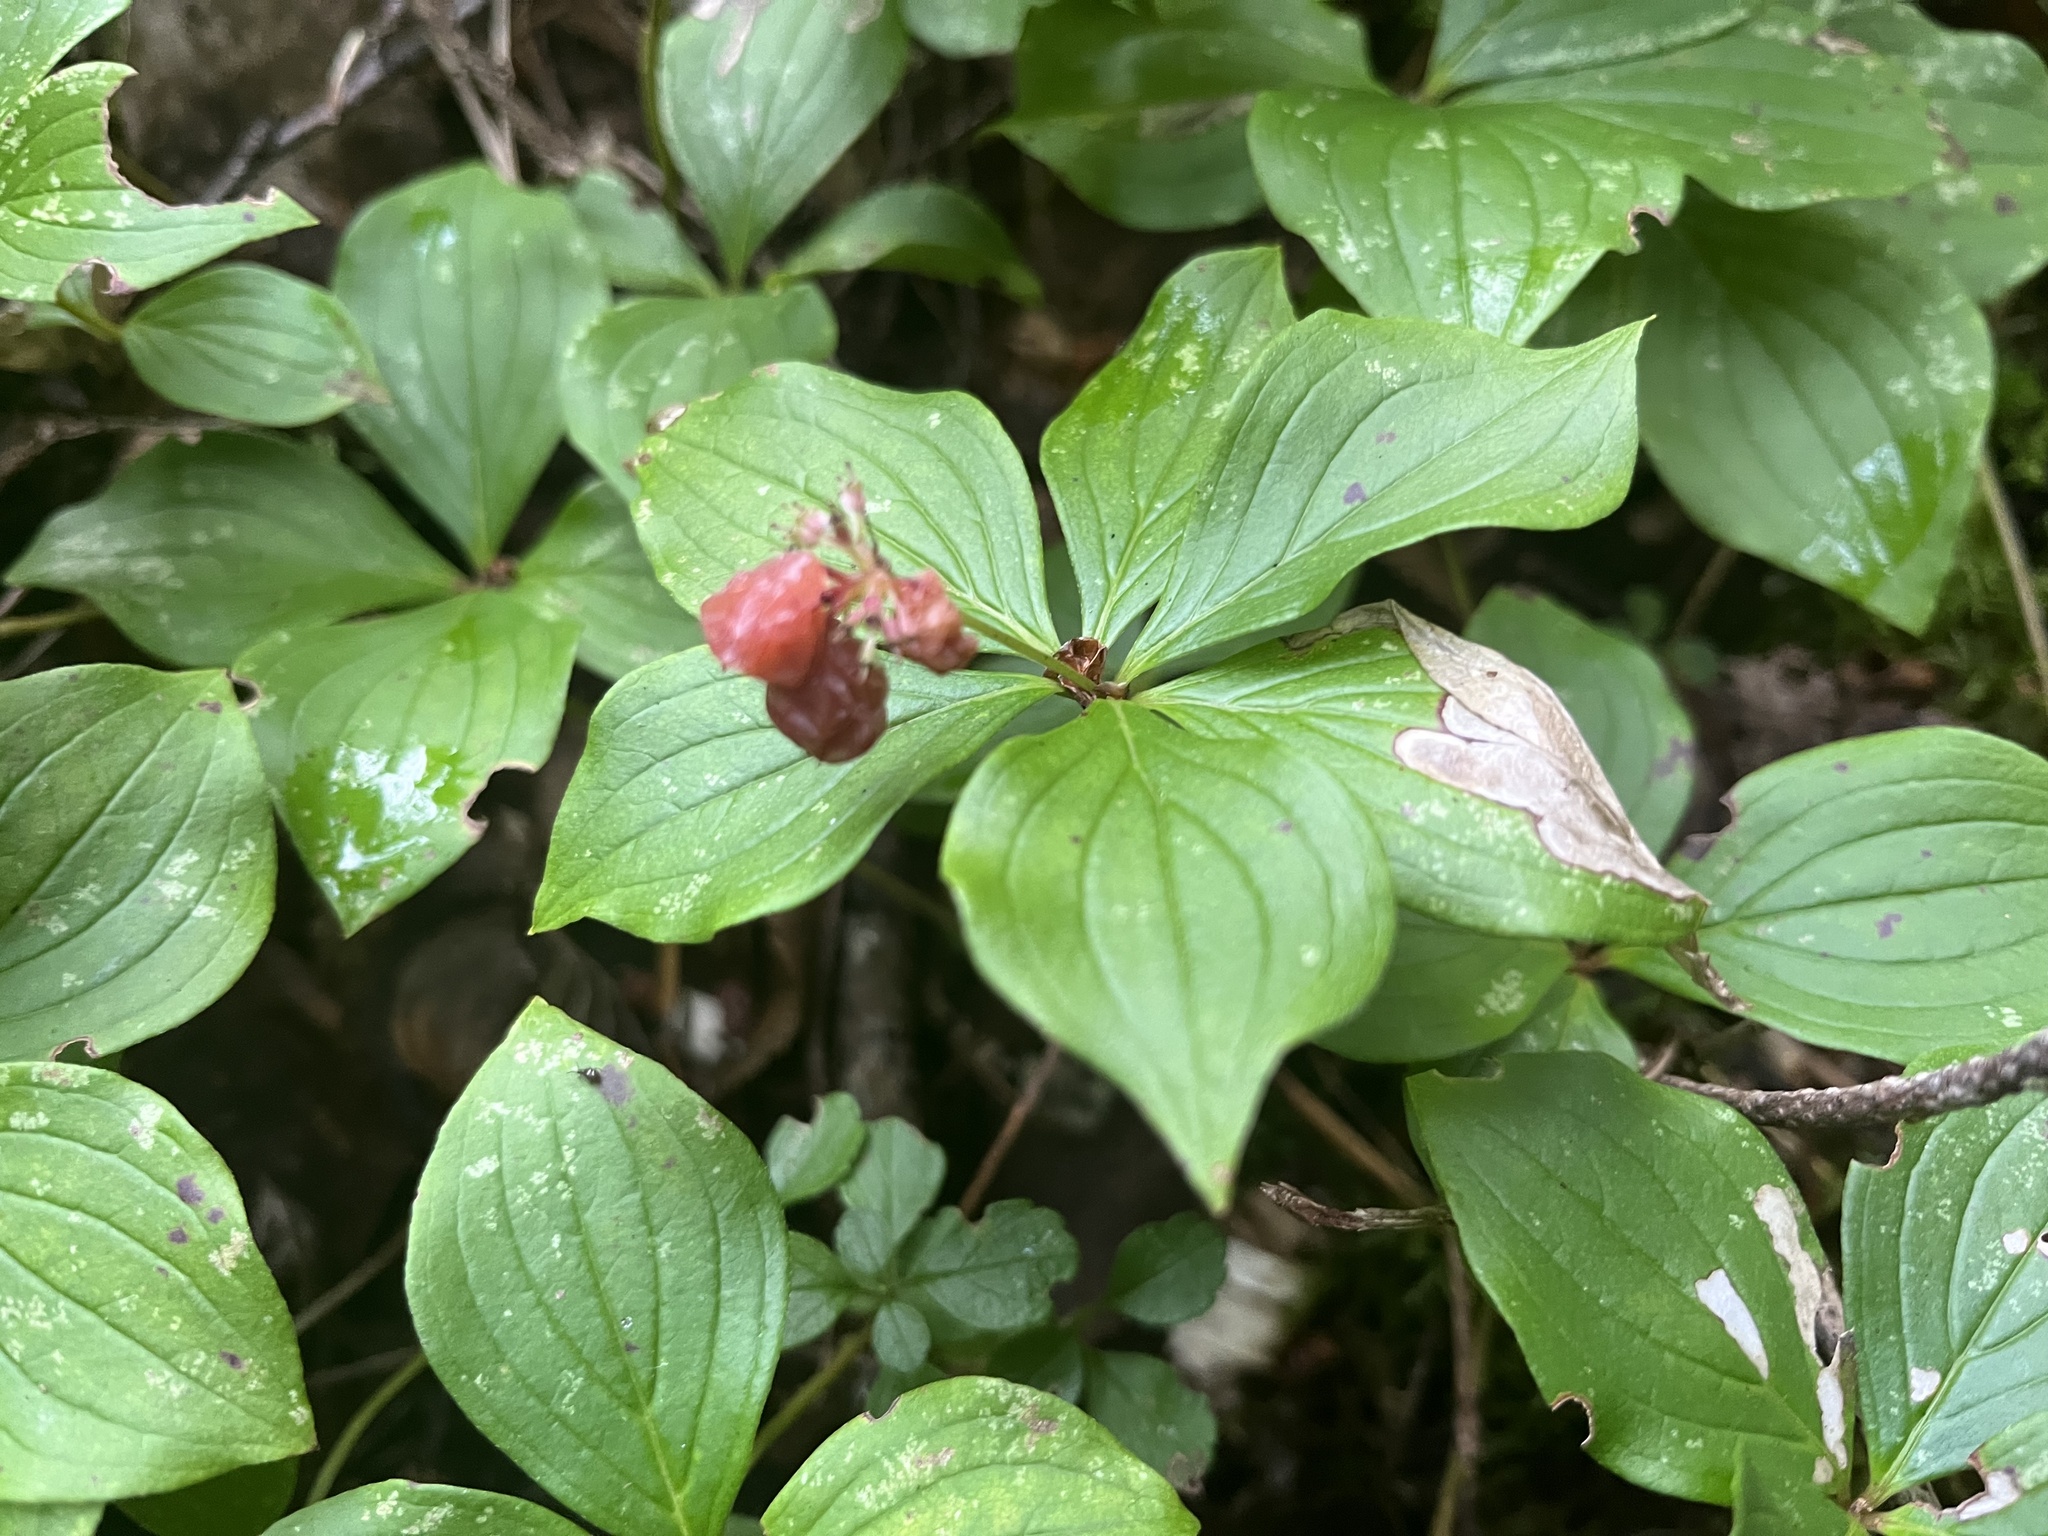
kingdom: Plantae
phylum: Tracheophyta
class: Magnoliopsida
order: Cornales
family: Cornaceae
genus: Cornus
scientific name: Cornus canadensis
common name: Creeping dogwood
